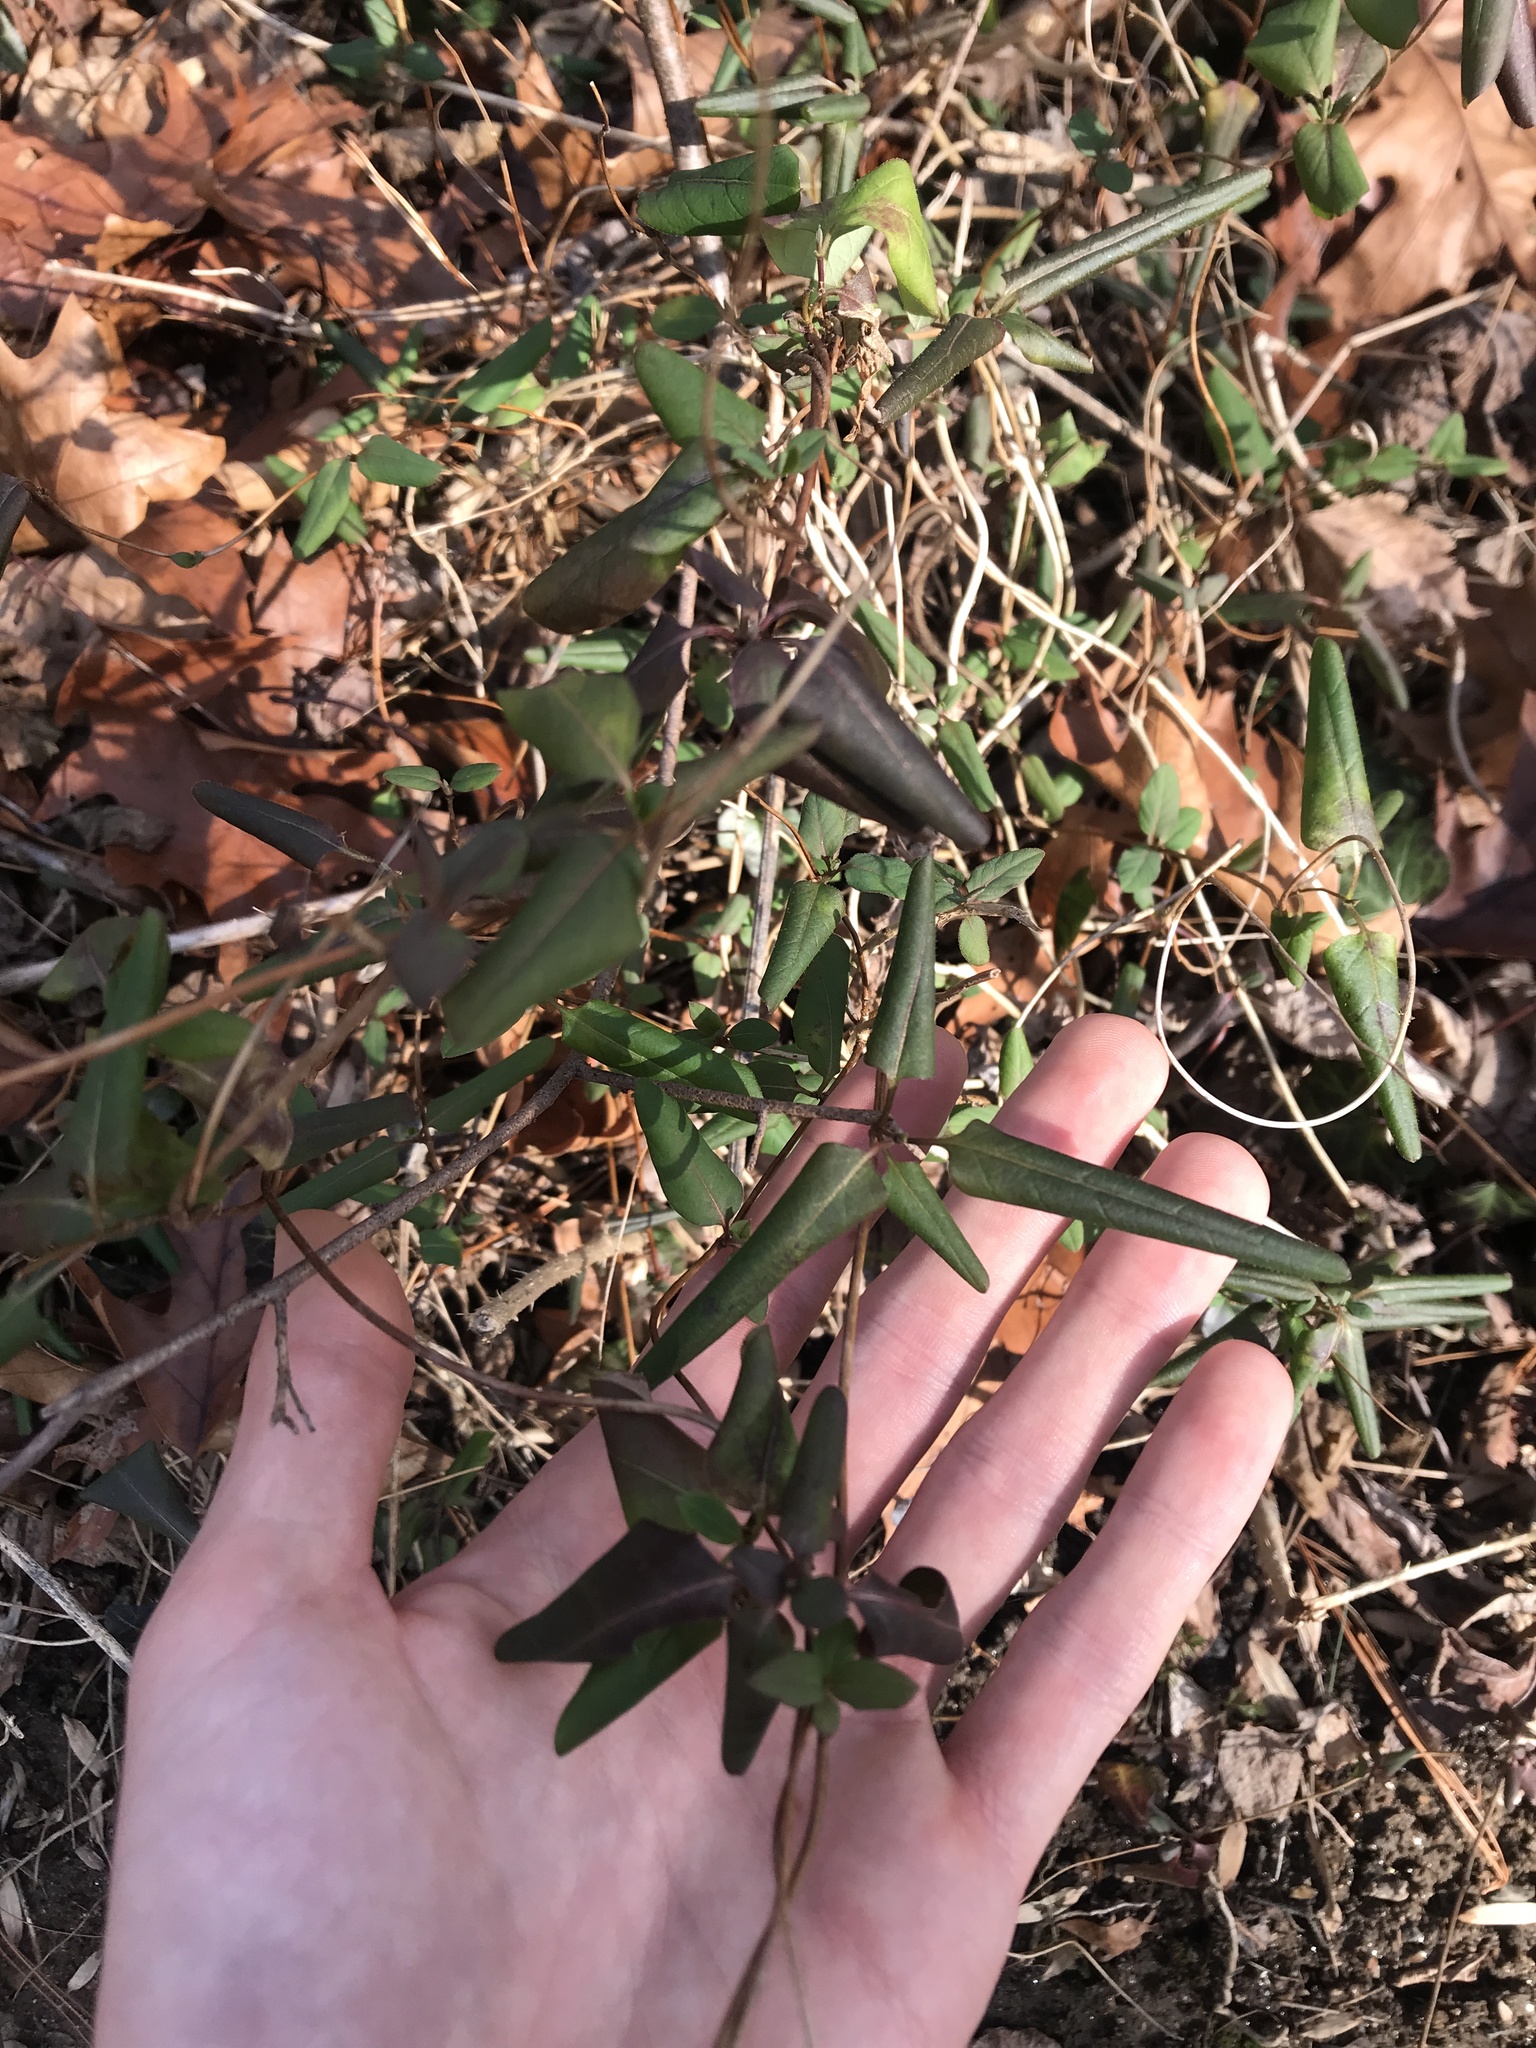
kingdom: Plantae
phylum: Tracheophyta
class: Magnoliopsida
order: Dipsacales
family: Caprifoliaceae
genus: Lonicera
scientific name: Lonicera japonica
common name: Japanese honeysuckle
